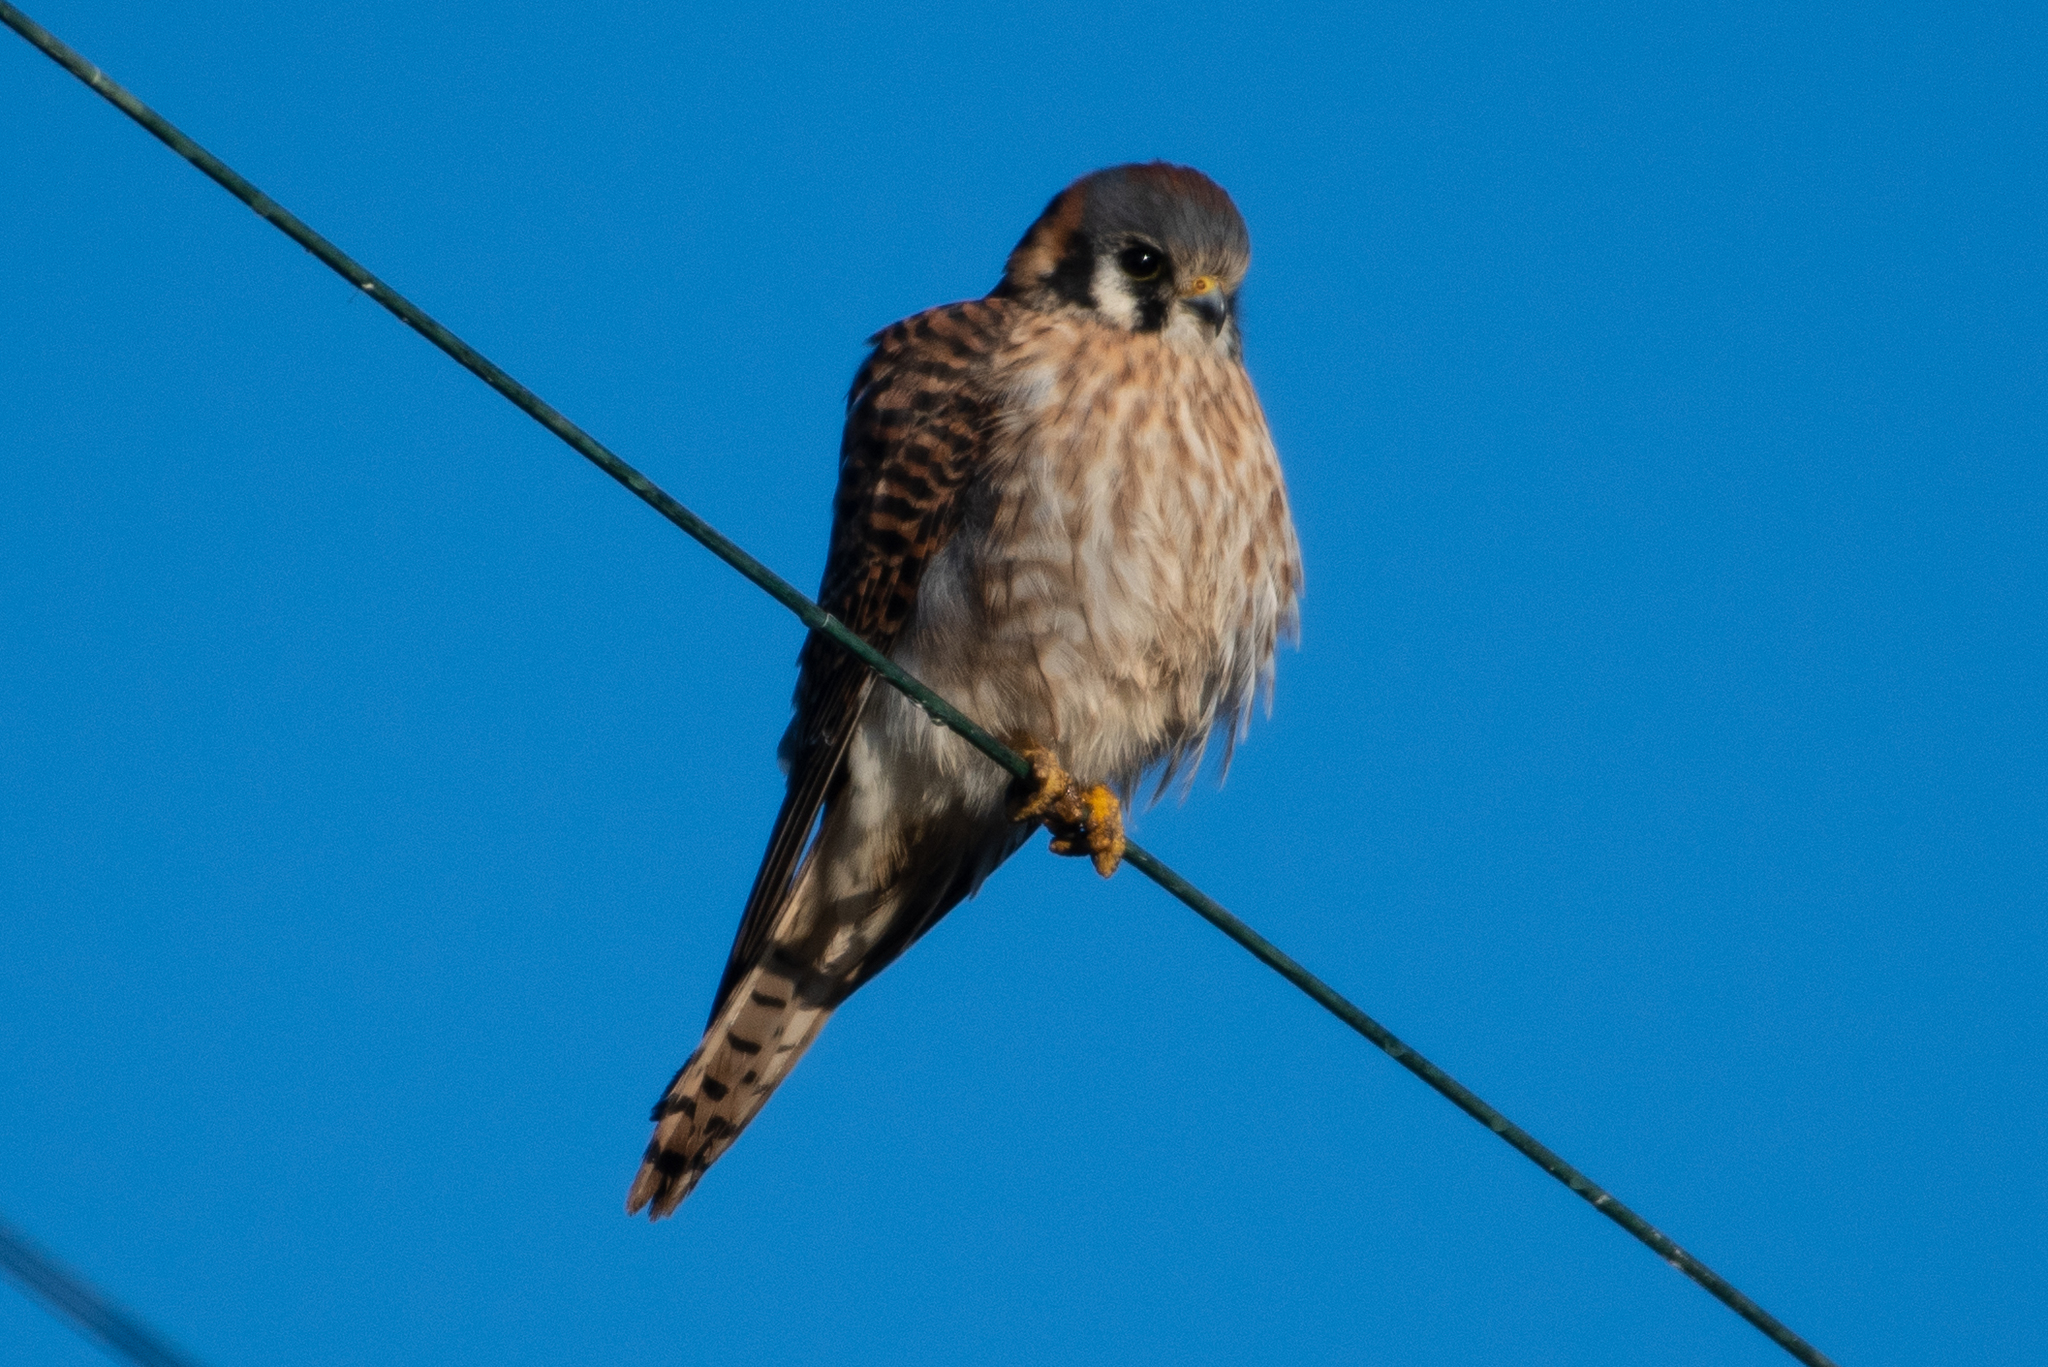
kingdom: Animalia
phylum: Chordata
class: Aves
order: Falconiformes
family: Falconidae
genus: Falco
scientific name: Falco sparverius
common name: American kestrel
